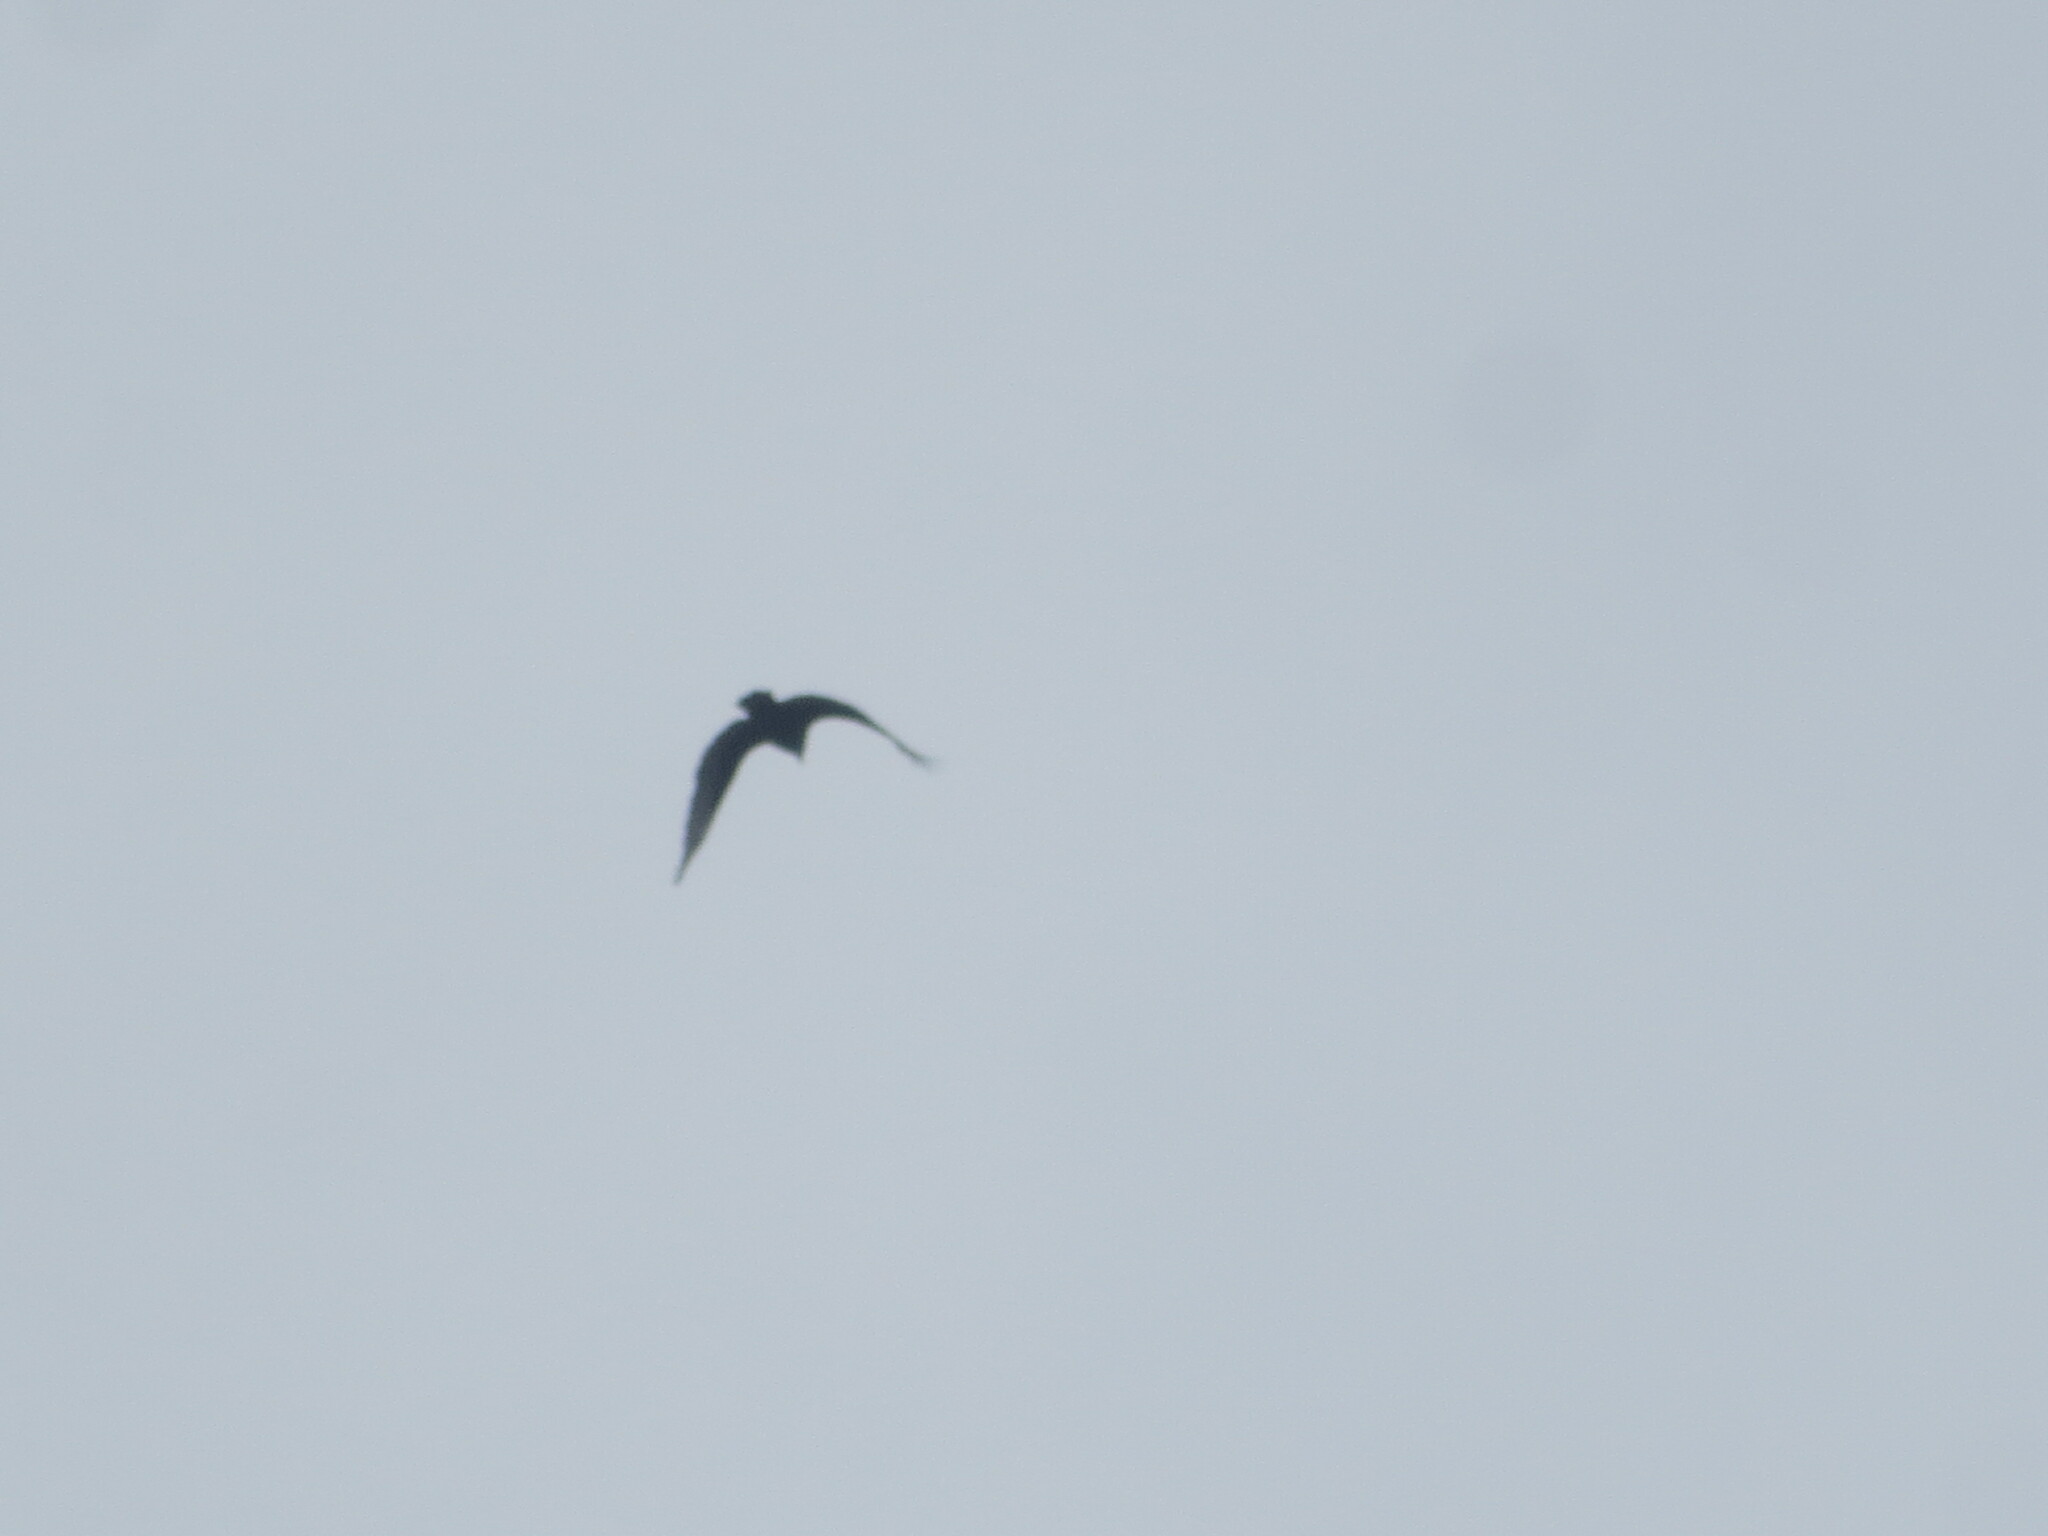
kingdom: Animalia
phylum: Chordata
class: Aves
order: Accipitriformes
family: Cathartidae
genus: Cathartes
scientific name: Cathartes aura
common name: Turkey vulture
